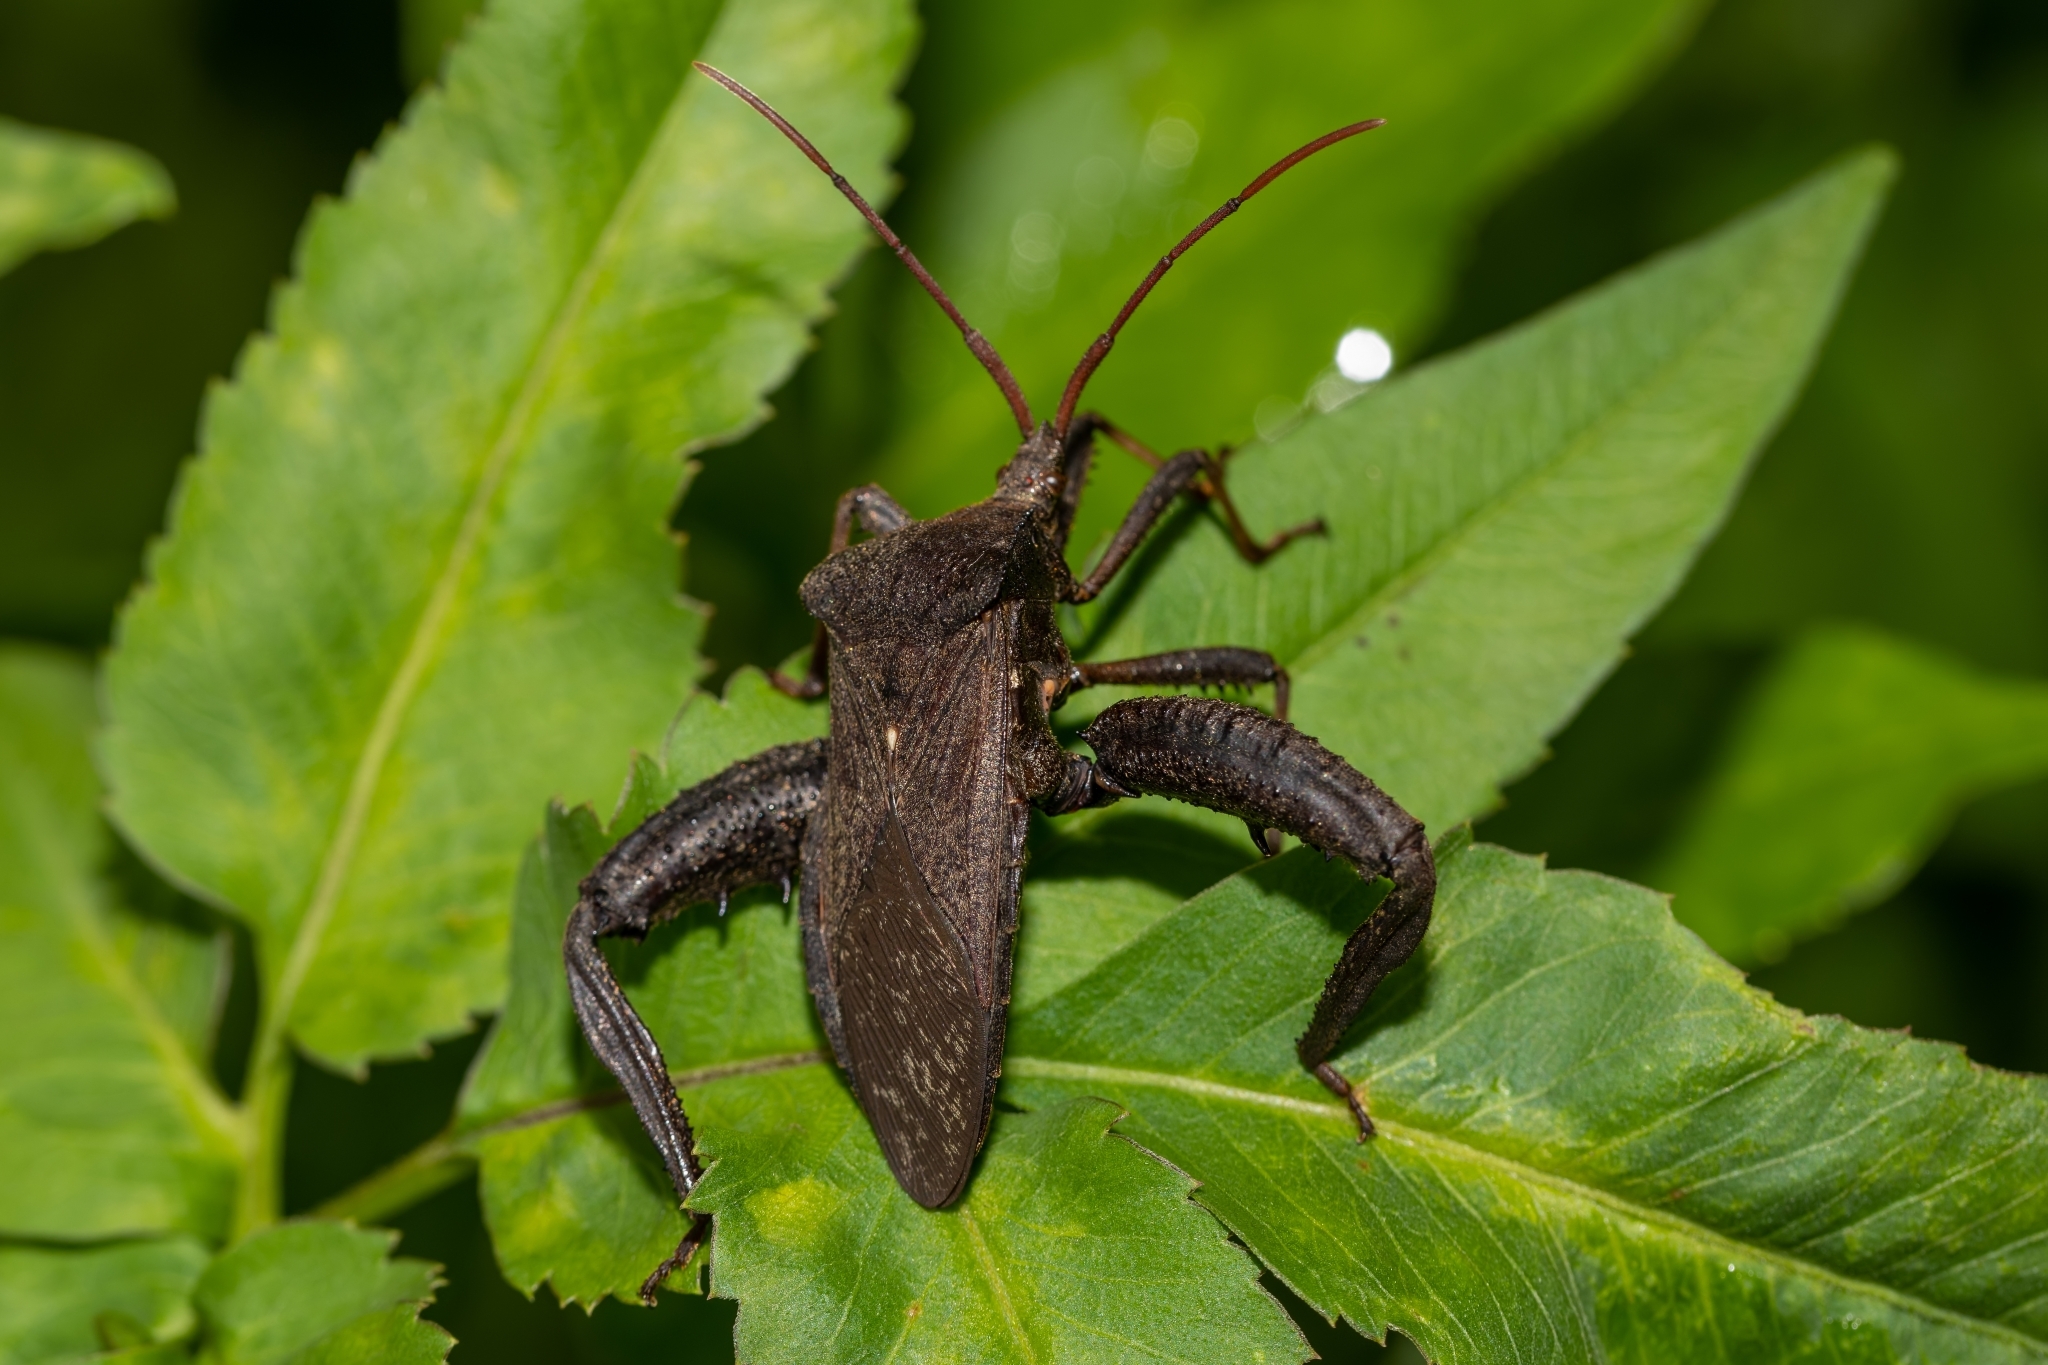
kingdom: Animalia
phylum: Arthropoda
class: Insecta
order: Hemiptera
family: Coreidae
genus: Acanthocephala
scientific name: Acanthocephala femorata
